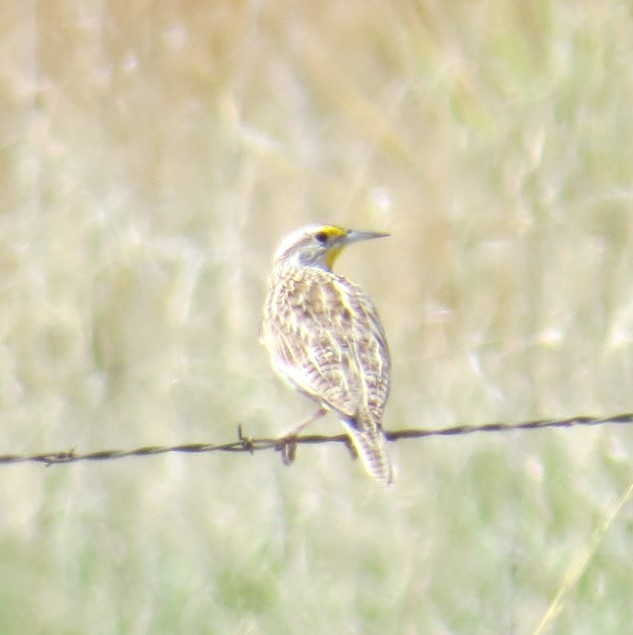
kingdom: Animalia
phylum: Chordata
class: Aves
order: Passeriformes
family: Icteridae
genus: Sturnella
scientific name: Sturnella neglecta
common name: Western meadowlark
